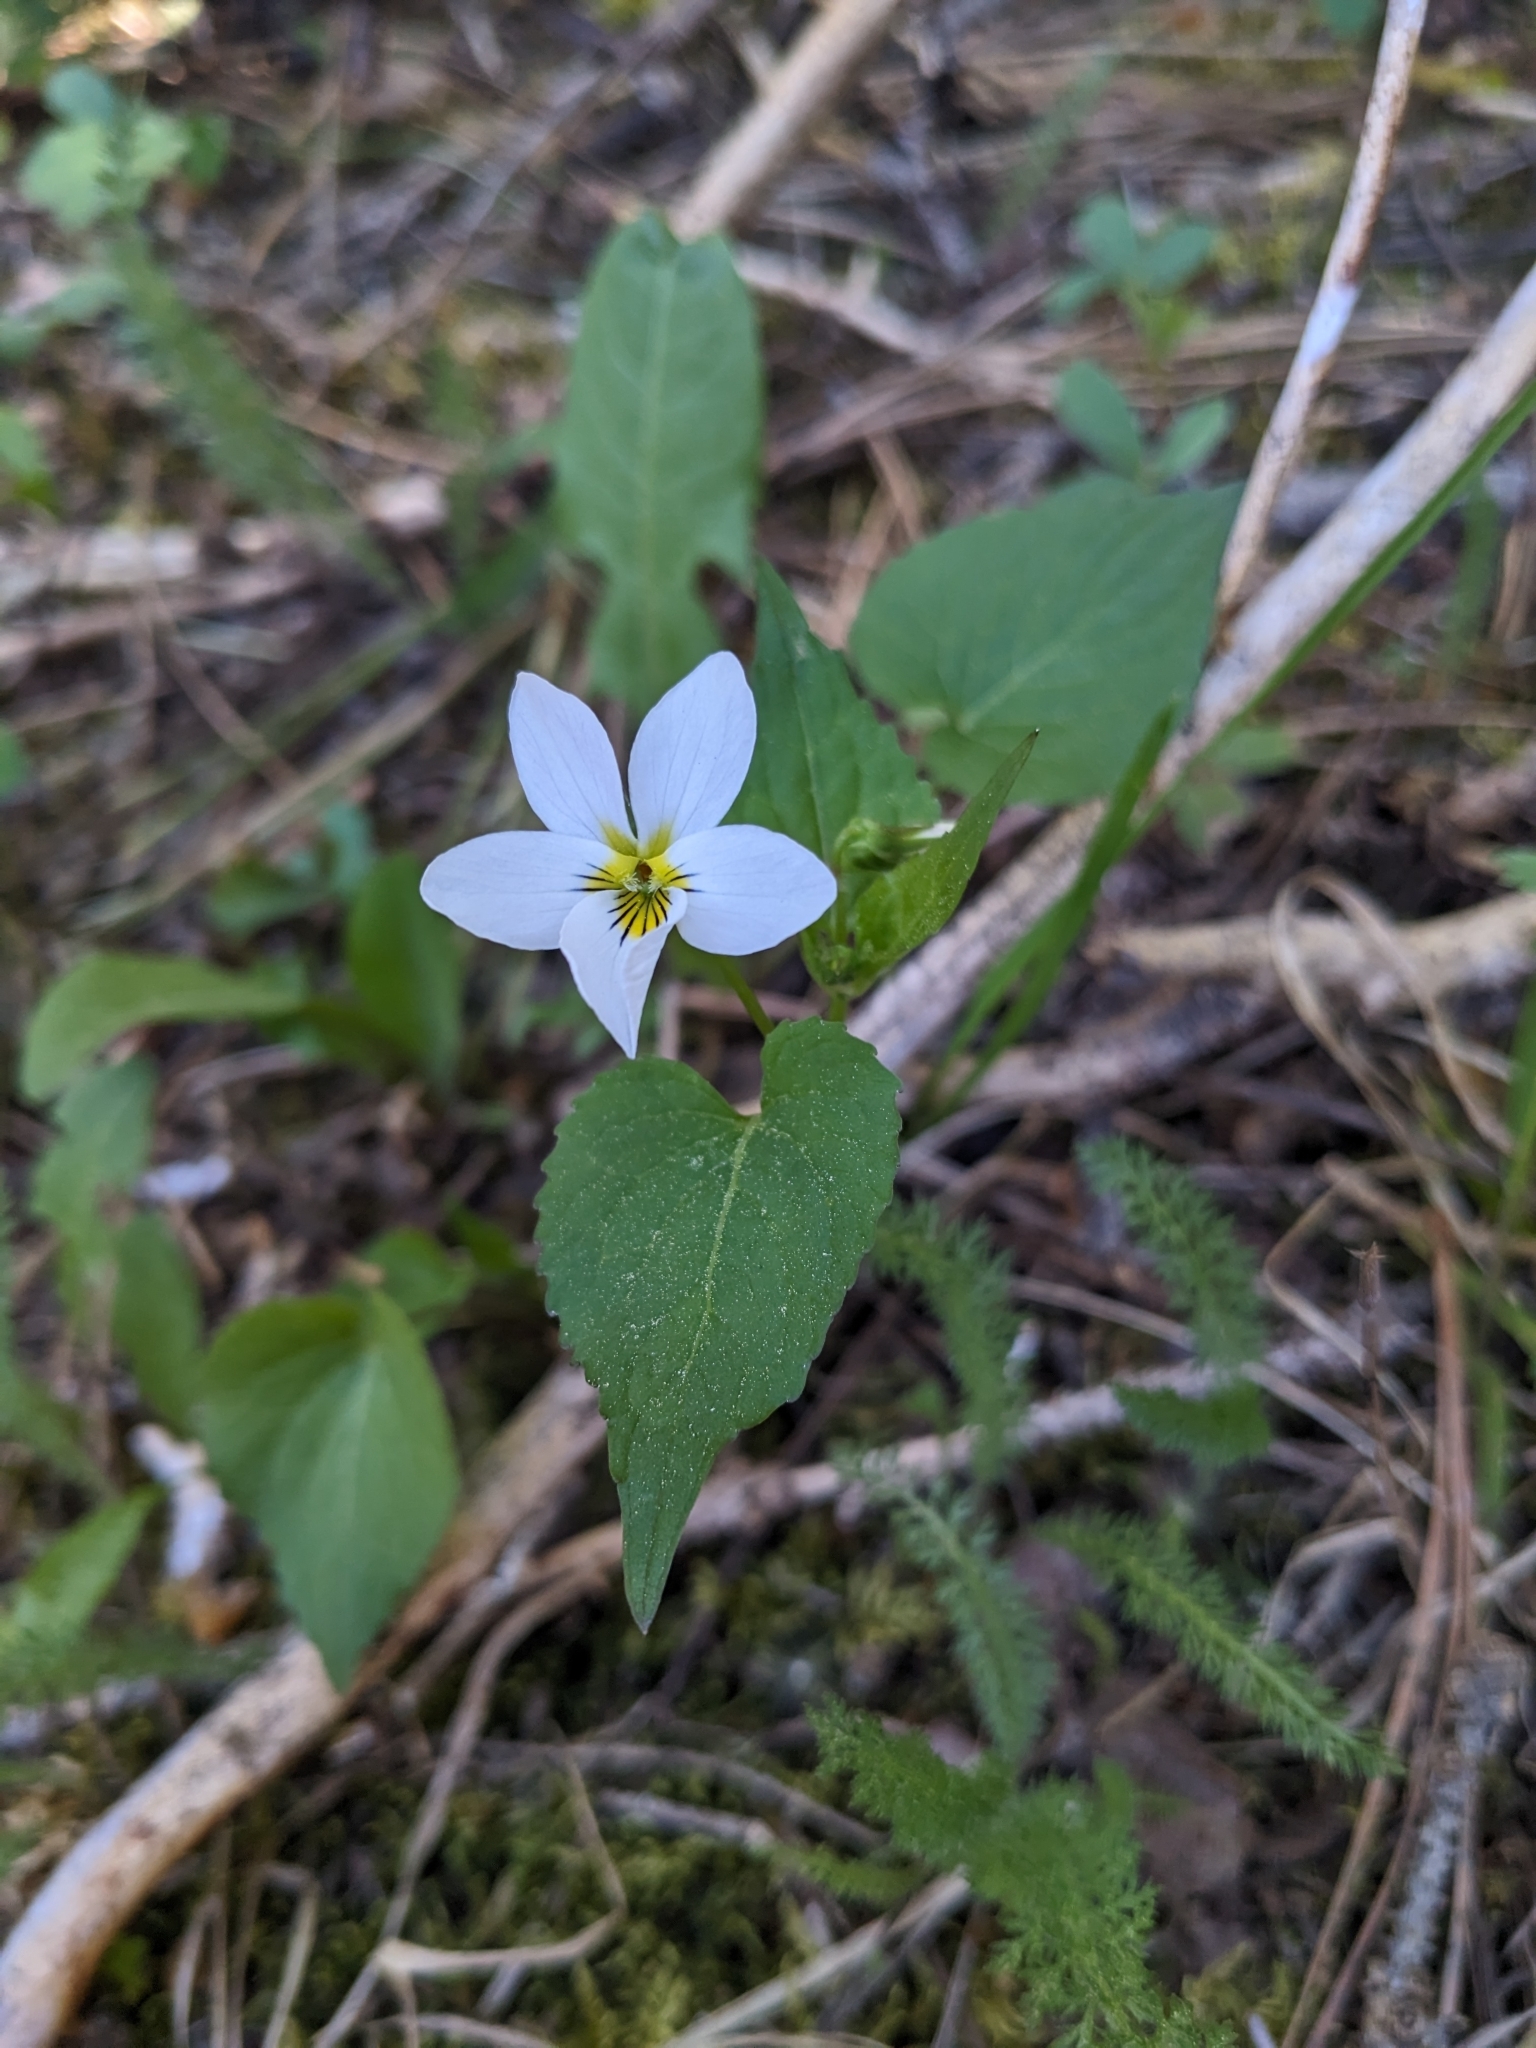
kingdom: Plantae
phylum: Tracheophyta
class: Magnoliopsida
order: Malpighiales
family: Violaceae
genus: Viola
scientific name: Viola canadensis
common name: Canada violet
